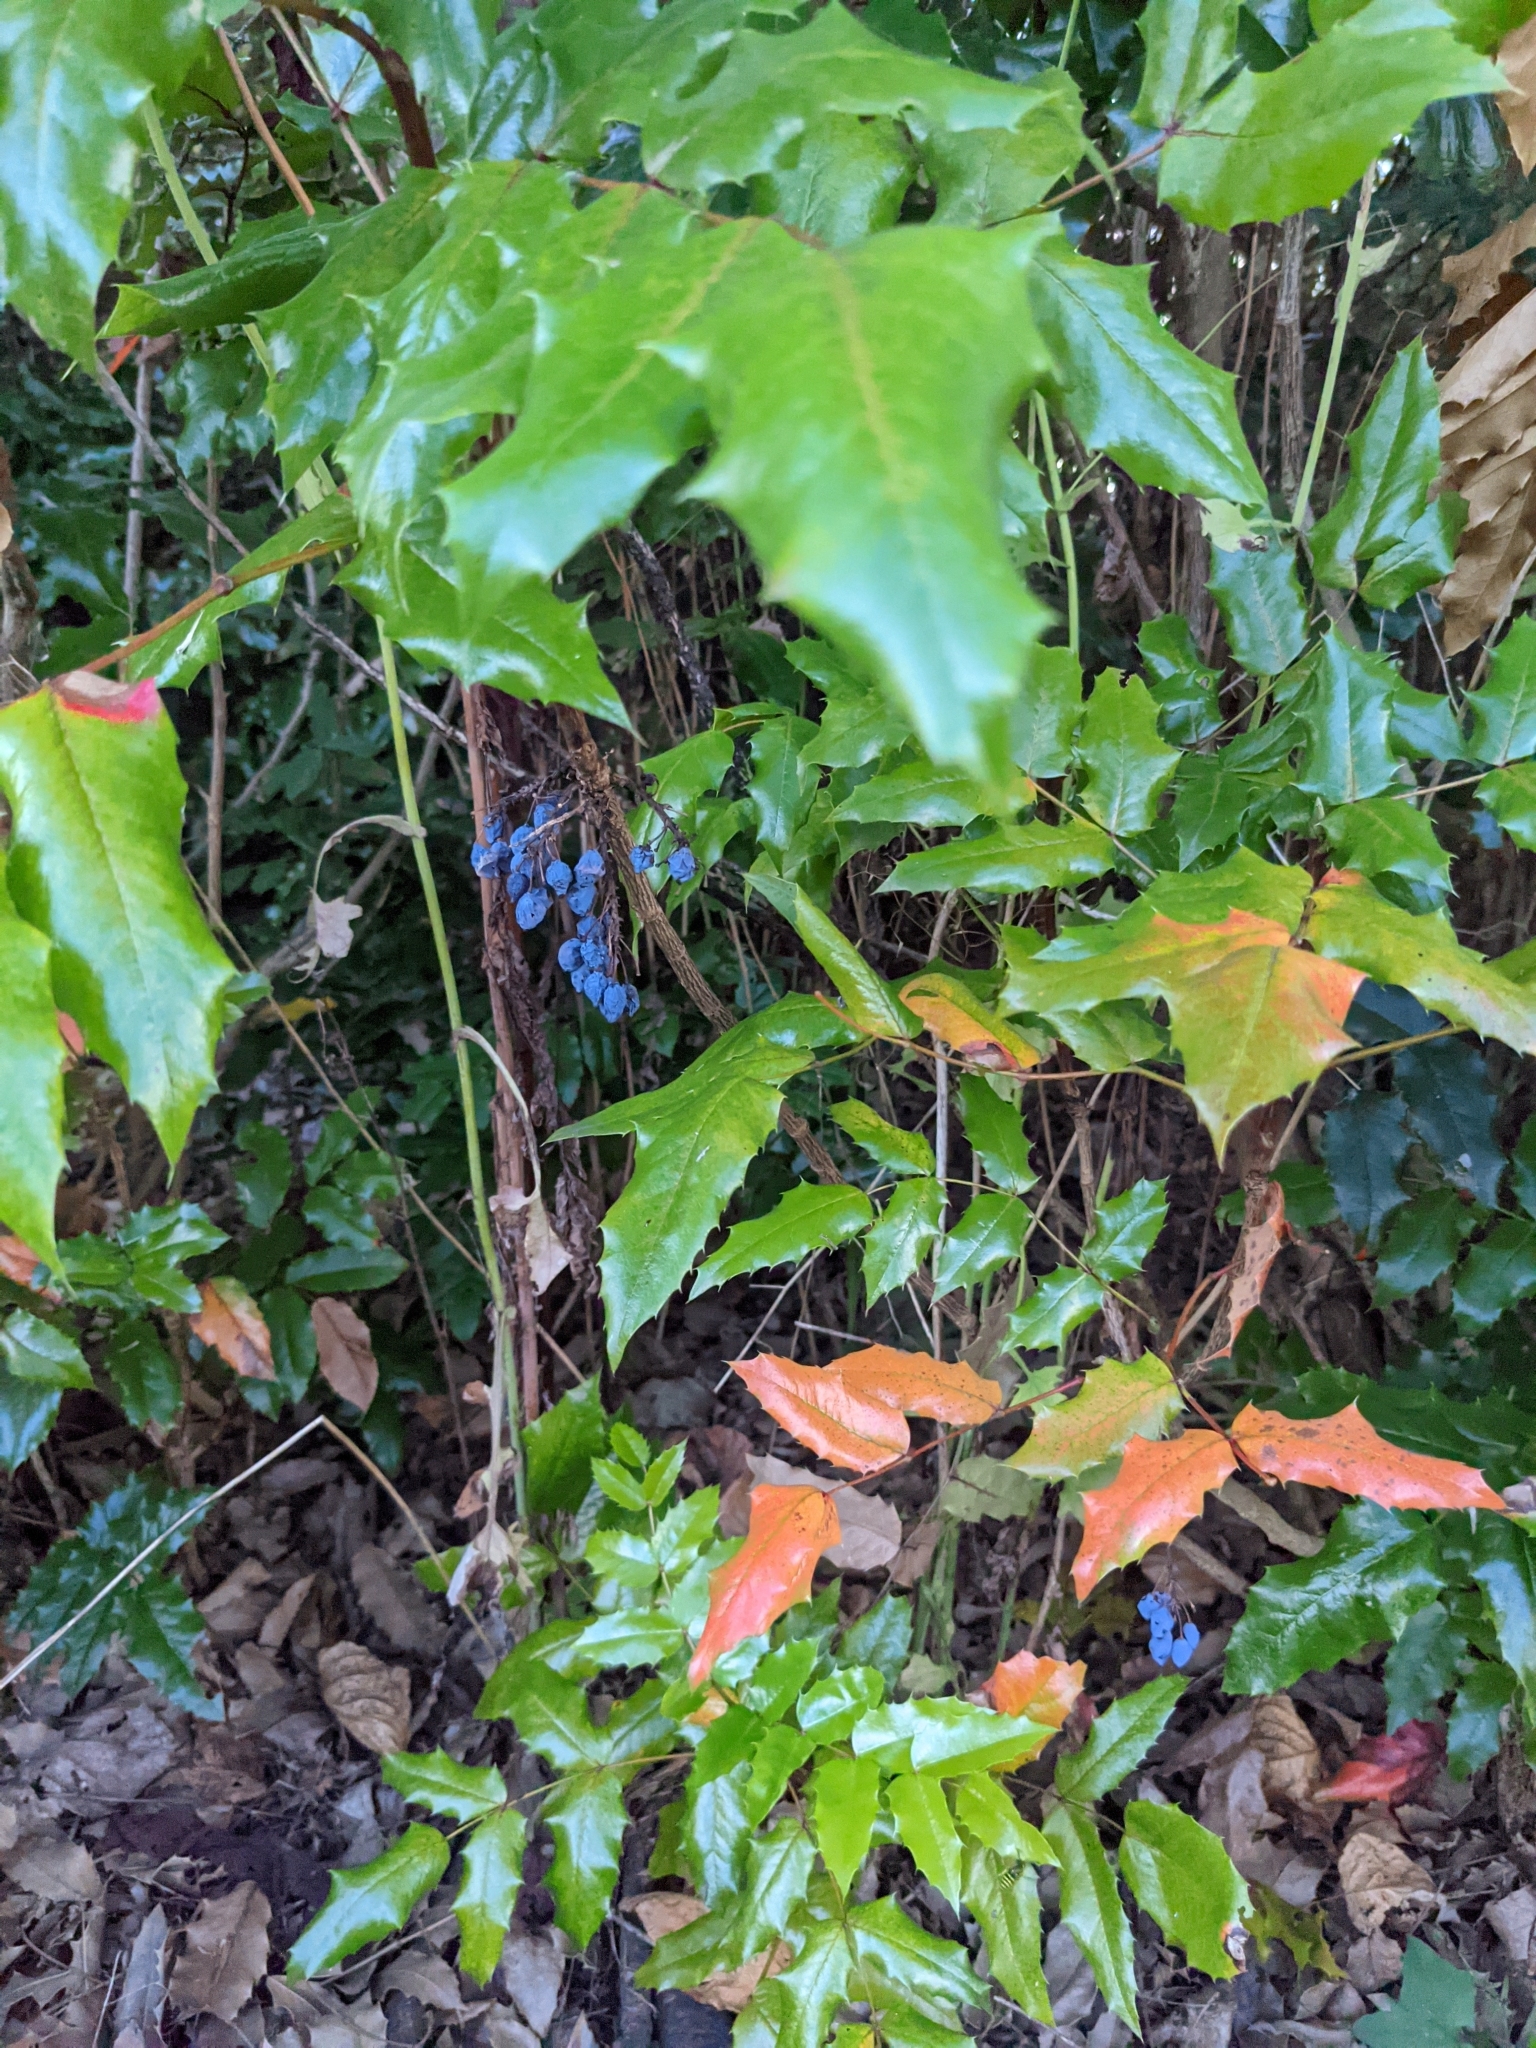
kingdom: Plantae
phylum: Tracheophyta
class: Magnoliopsida
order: Ranunculales
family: Berberidaceae
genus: Mahonia
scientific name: Mahonia aquifolium
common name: Oregon-grape
